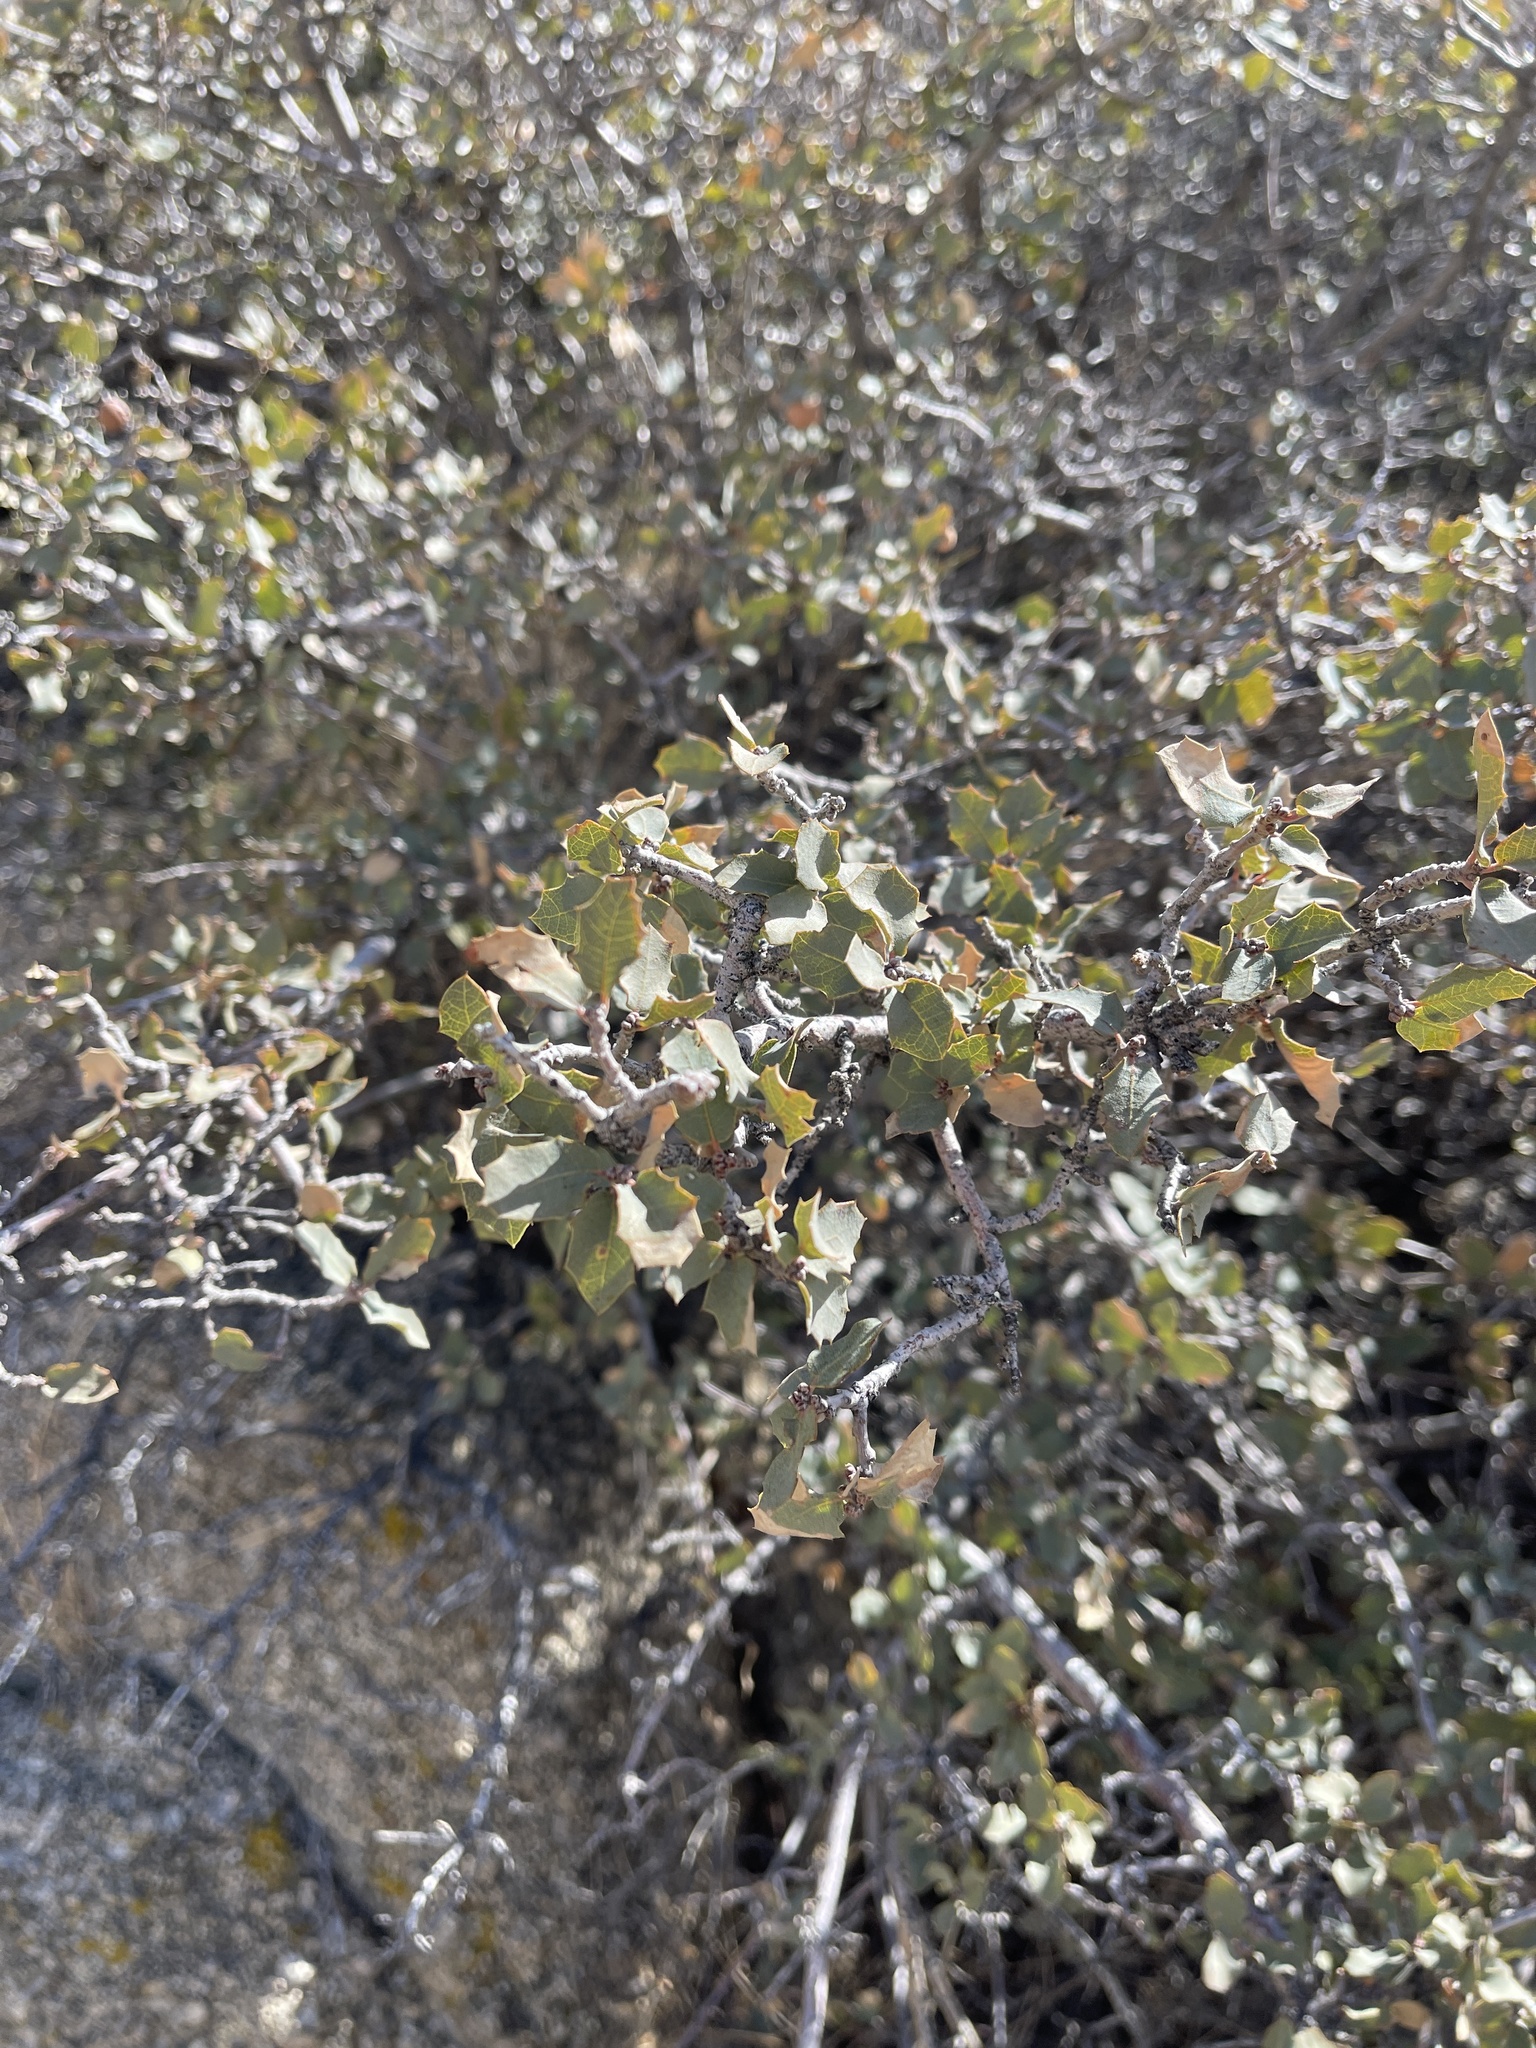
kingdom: Plantae
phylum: Tracheophyta
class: Magnoliopsida
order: Fagales
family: Fagaceae
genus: Quercus
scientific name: Quercus turbinella
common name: Sonoran scrub oak
